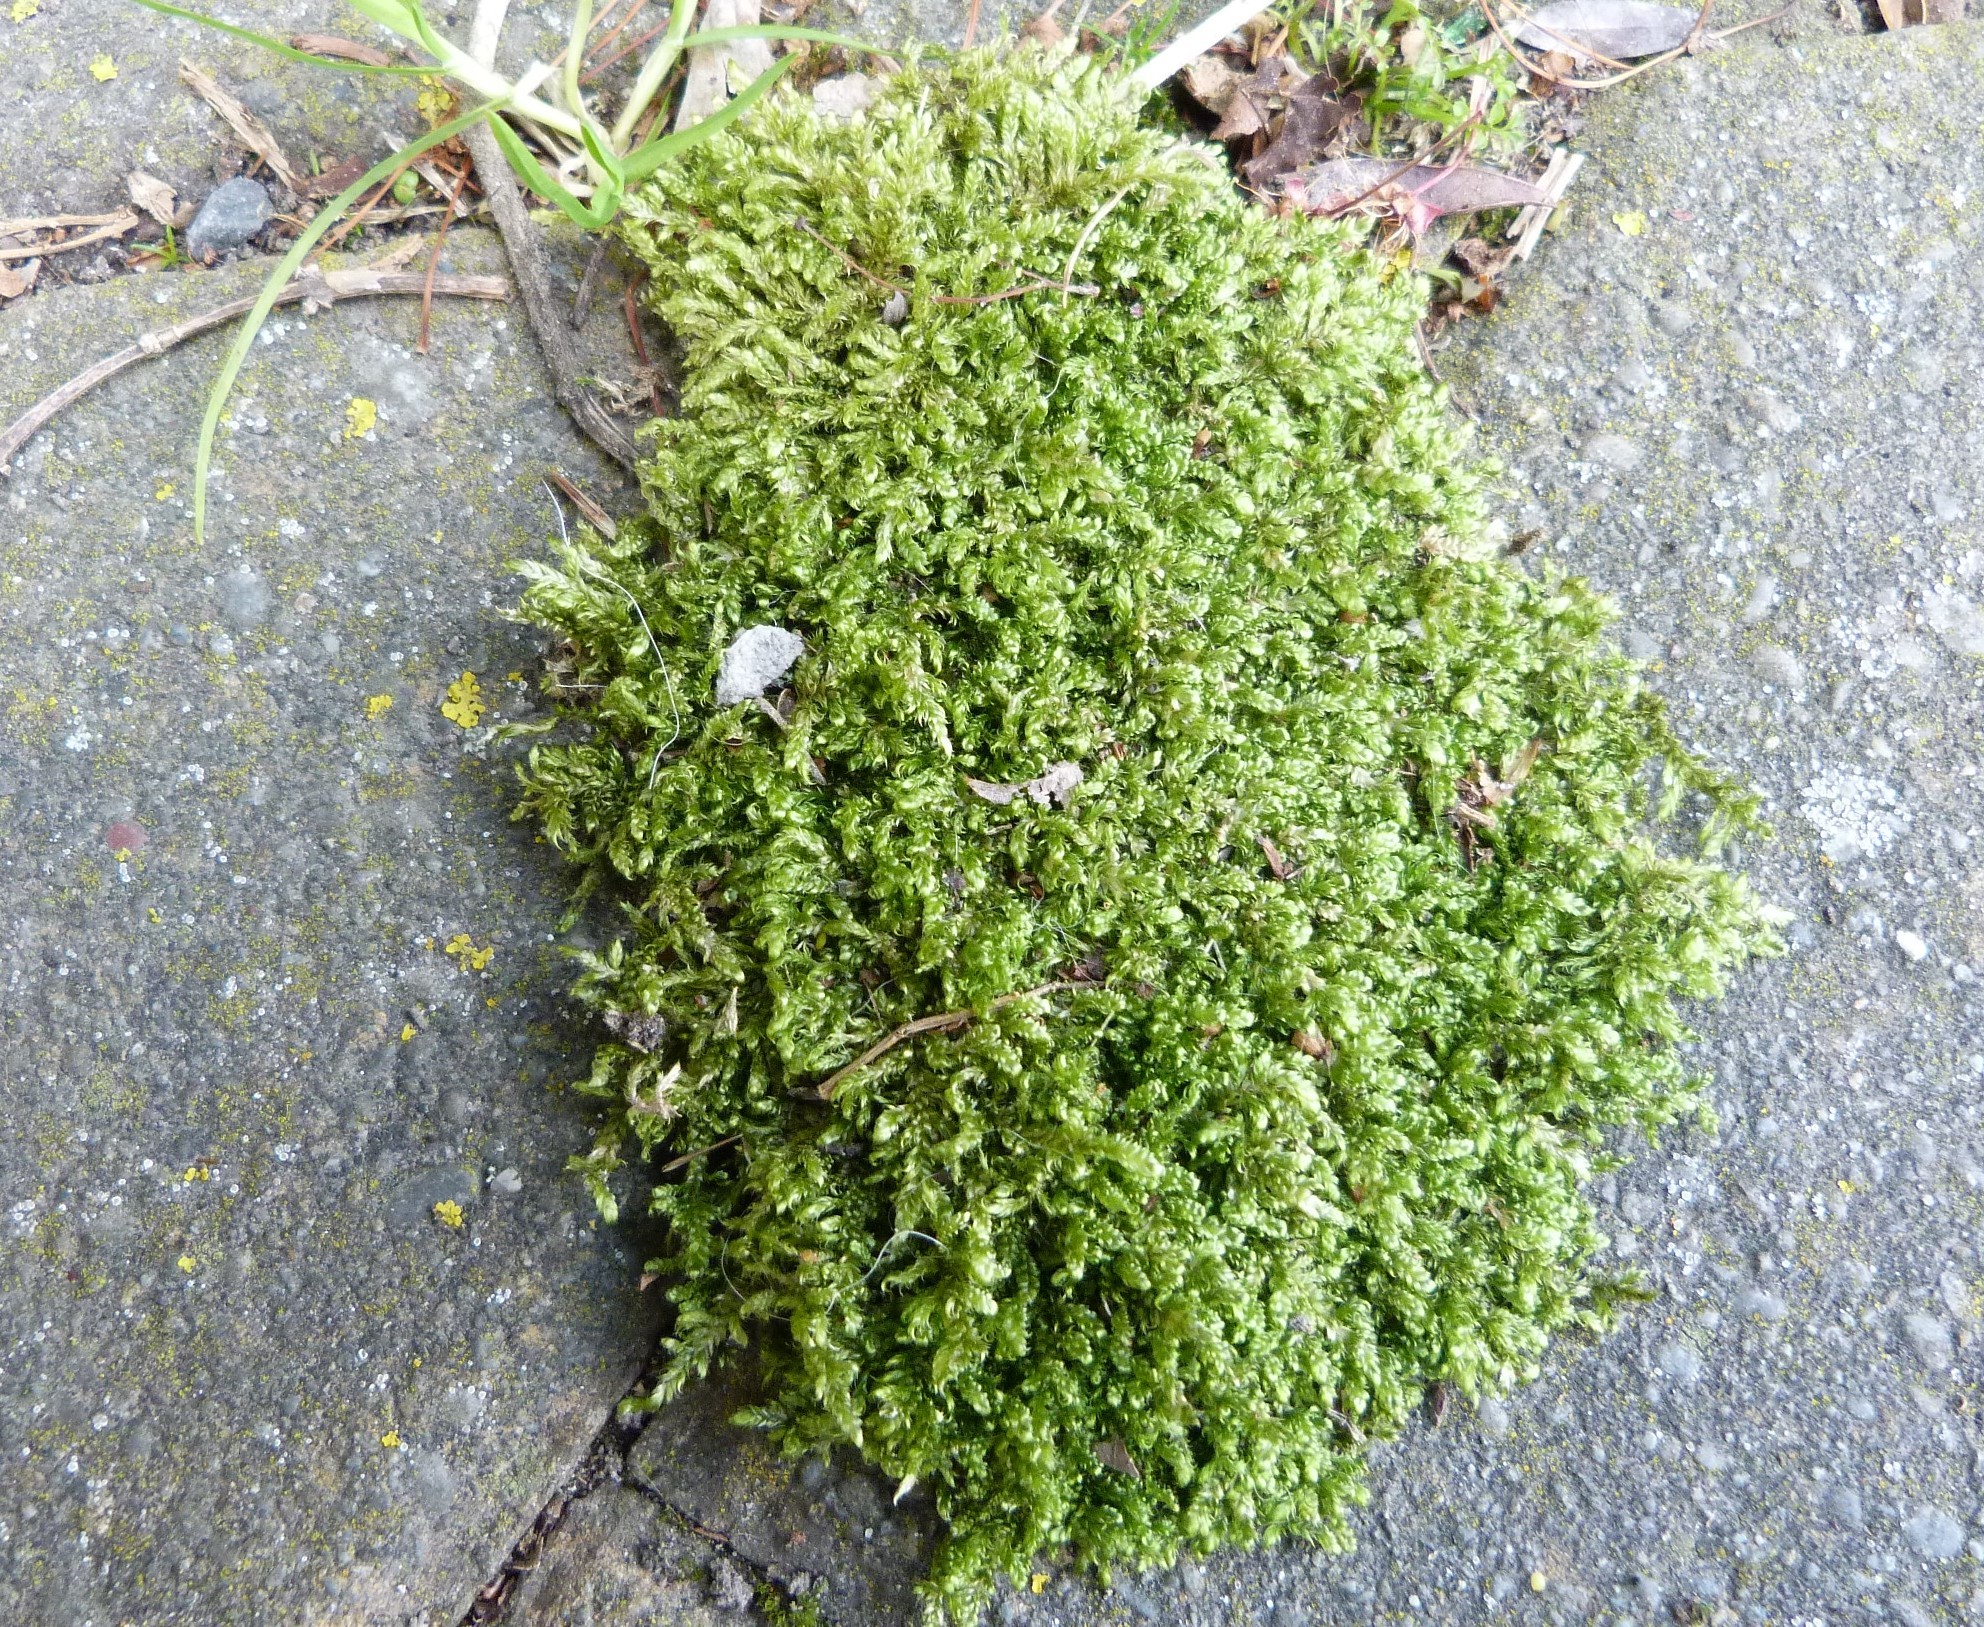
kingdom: Plantae
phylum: Bryophyta
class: Bryopsida
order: Hypnales
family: Hypnaceae
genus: Hypnum
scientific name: Hypnum cupressiforme
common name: Cypress-leaved plait-moss
